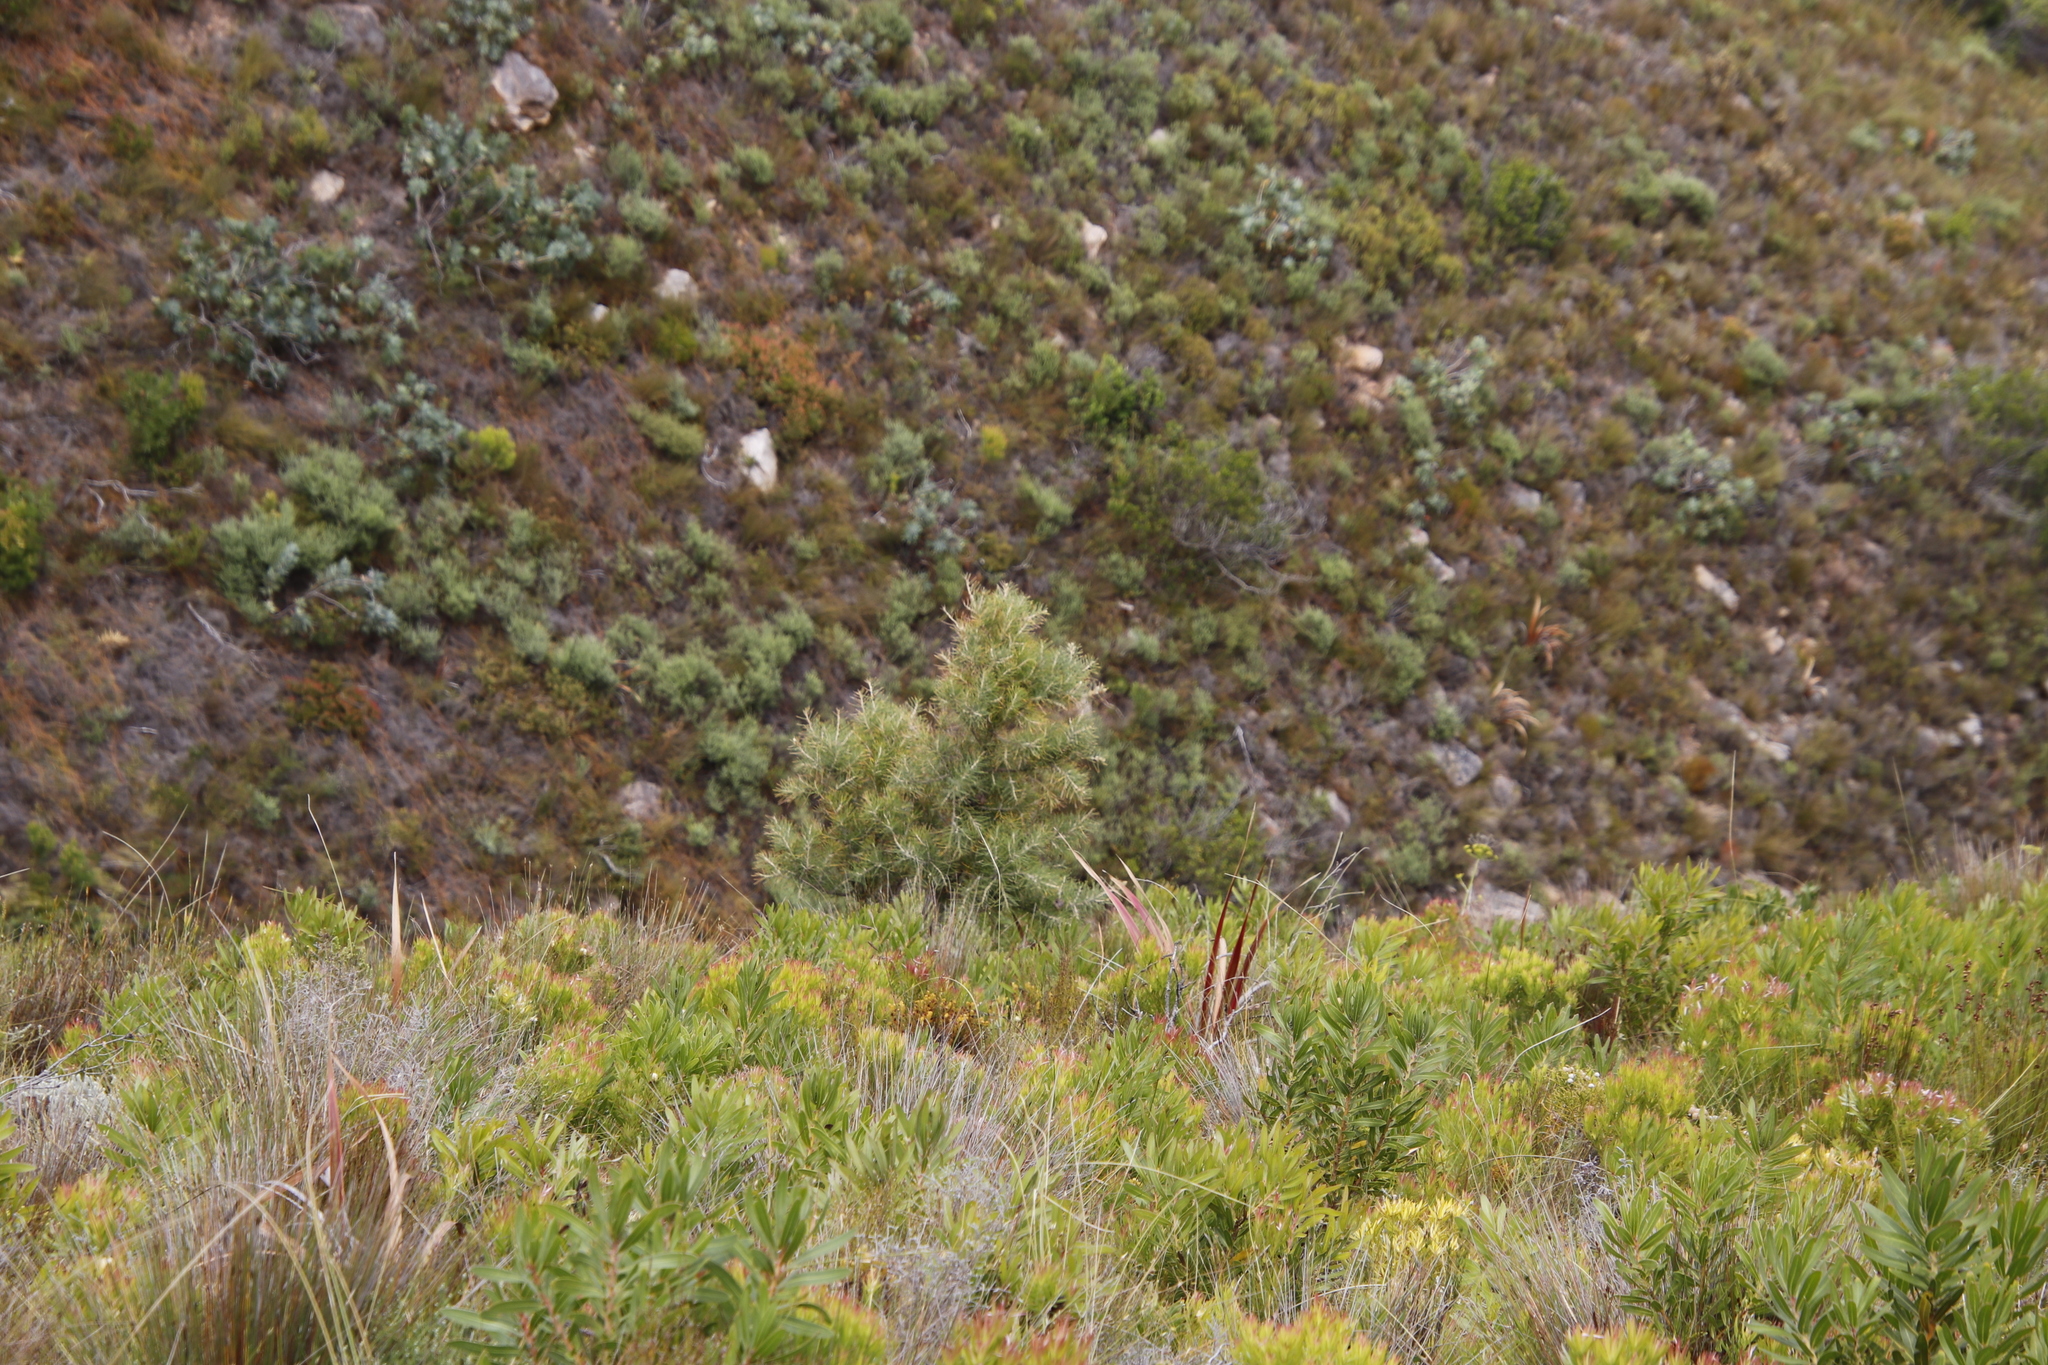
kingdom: Plantae
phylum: Tracheophyta
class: Magnoliopsida
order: Proteales
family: Proteaceae
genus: Hakea
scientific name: Hakea gibbosa
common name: Rock hakea
